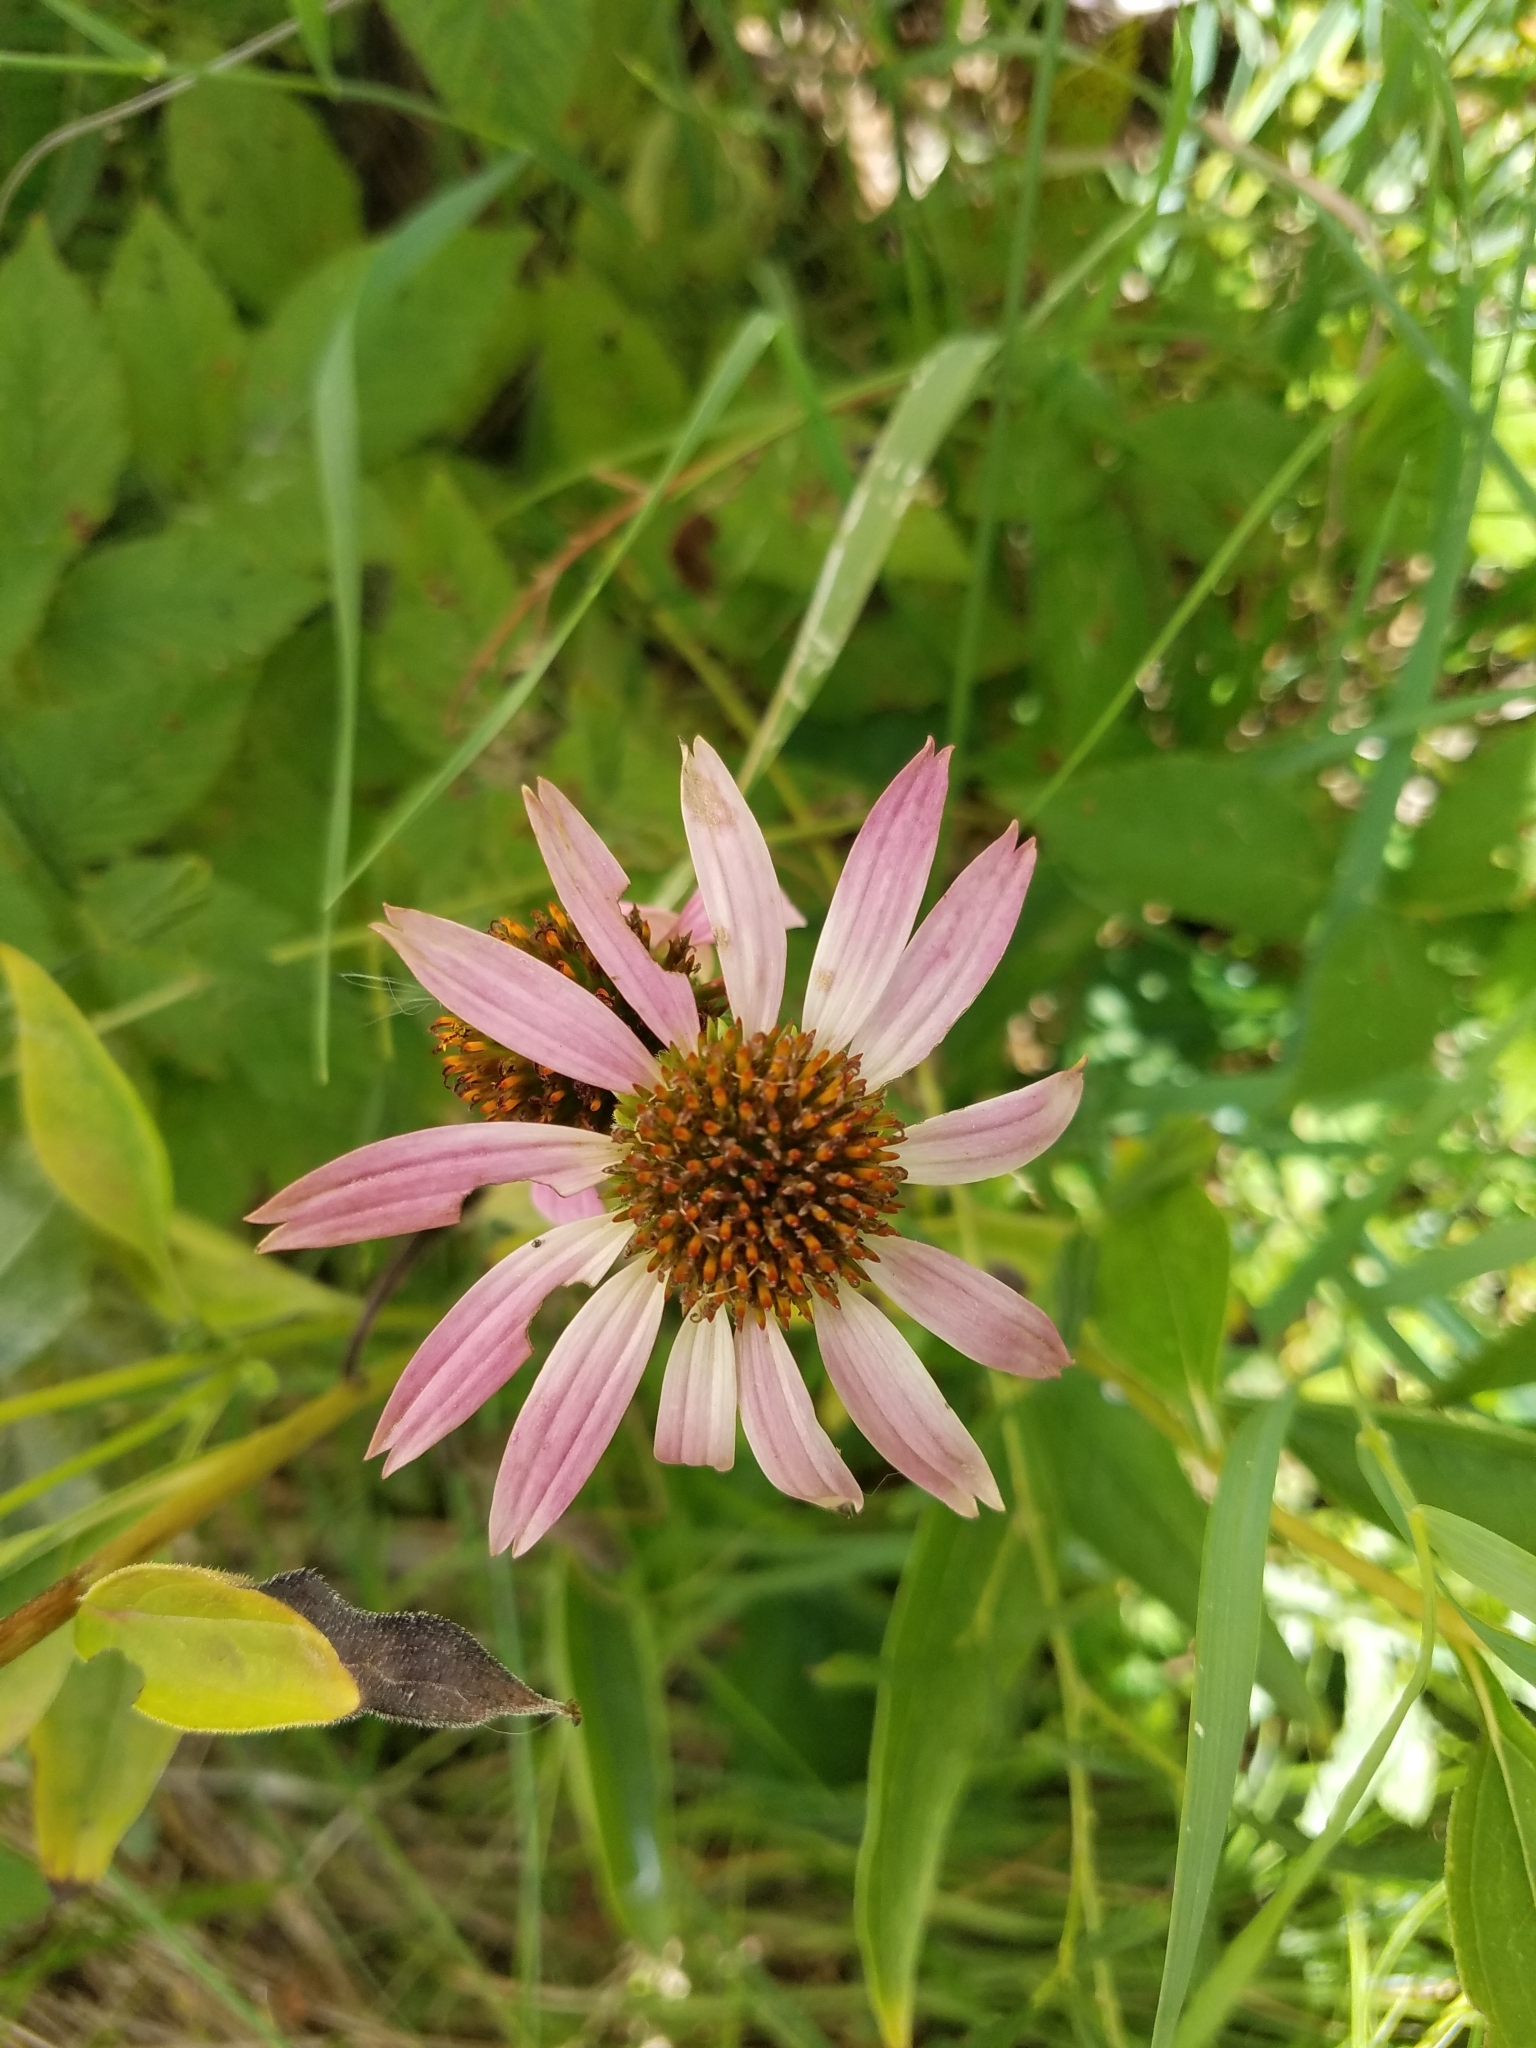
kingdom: Plantae
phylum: Tracheophyta
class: Magnoliopsida
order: Asterales
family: Asteraceae
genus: Echinacea
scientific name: Echinacea purpurea
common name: Broad-leaved purple coneflower
